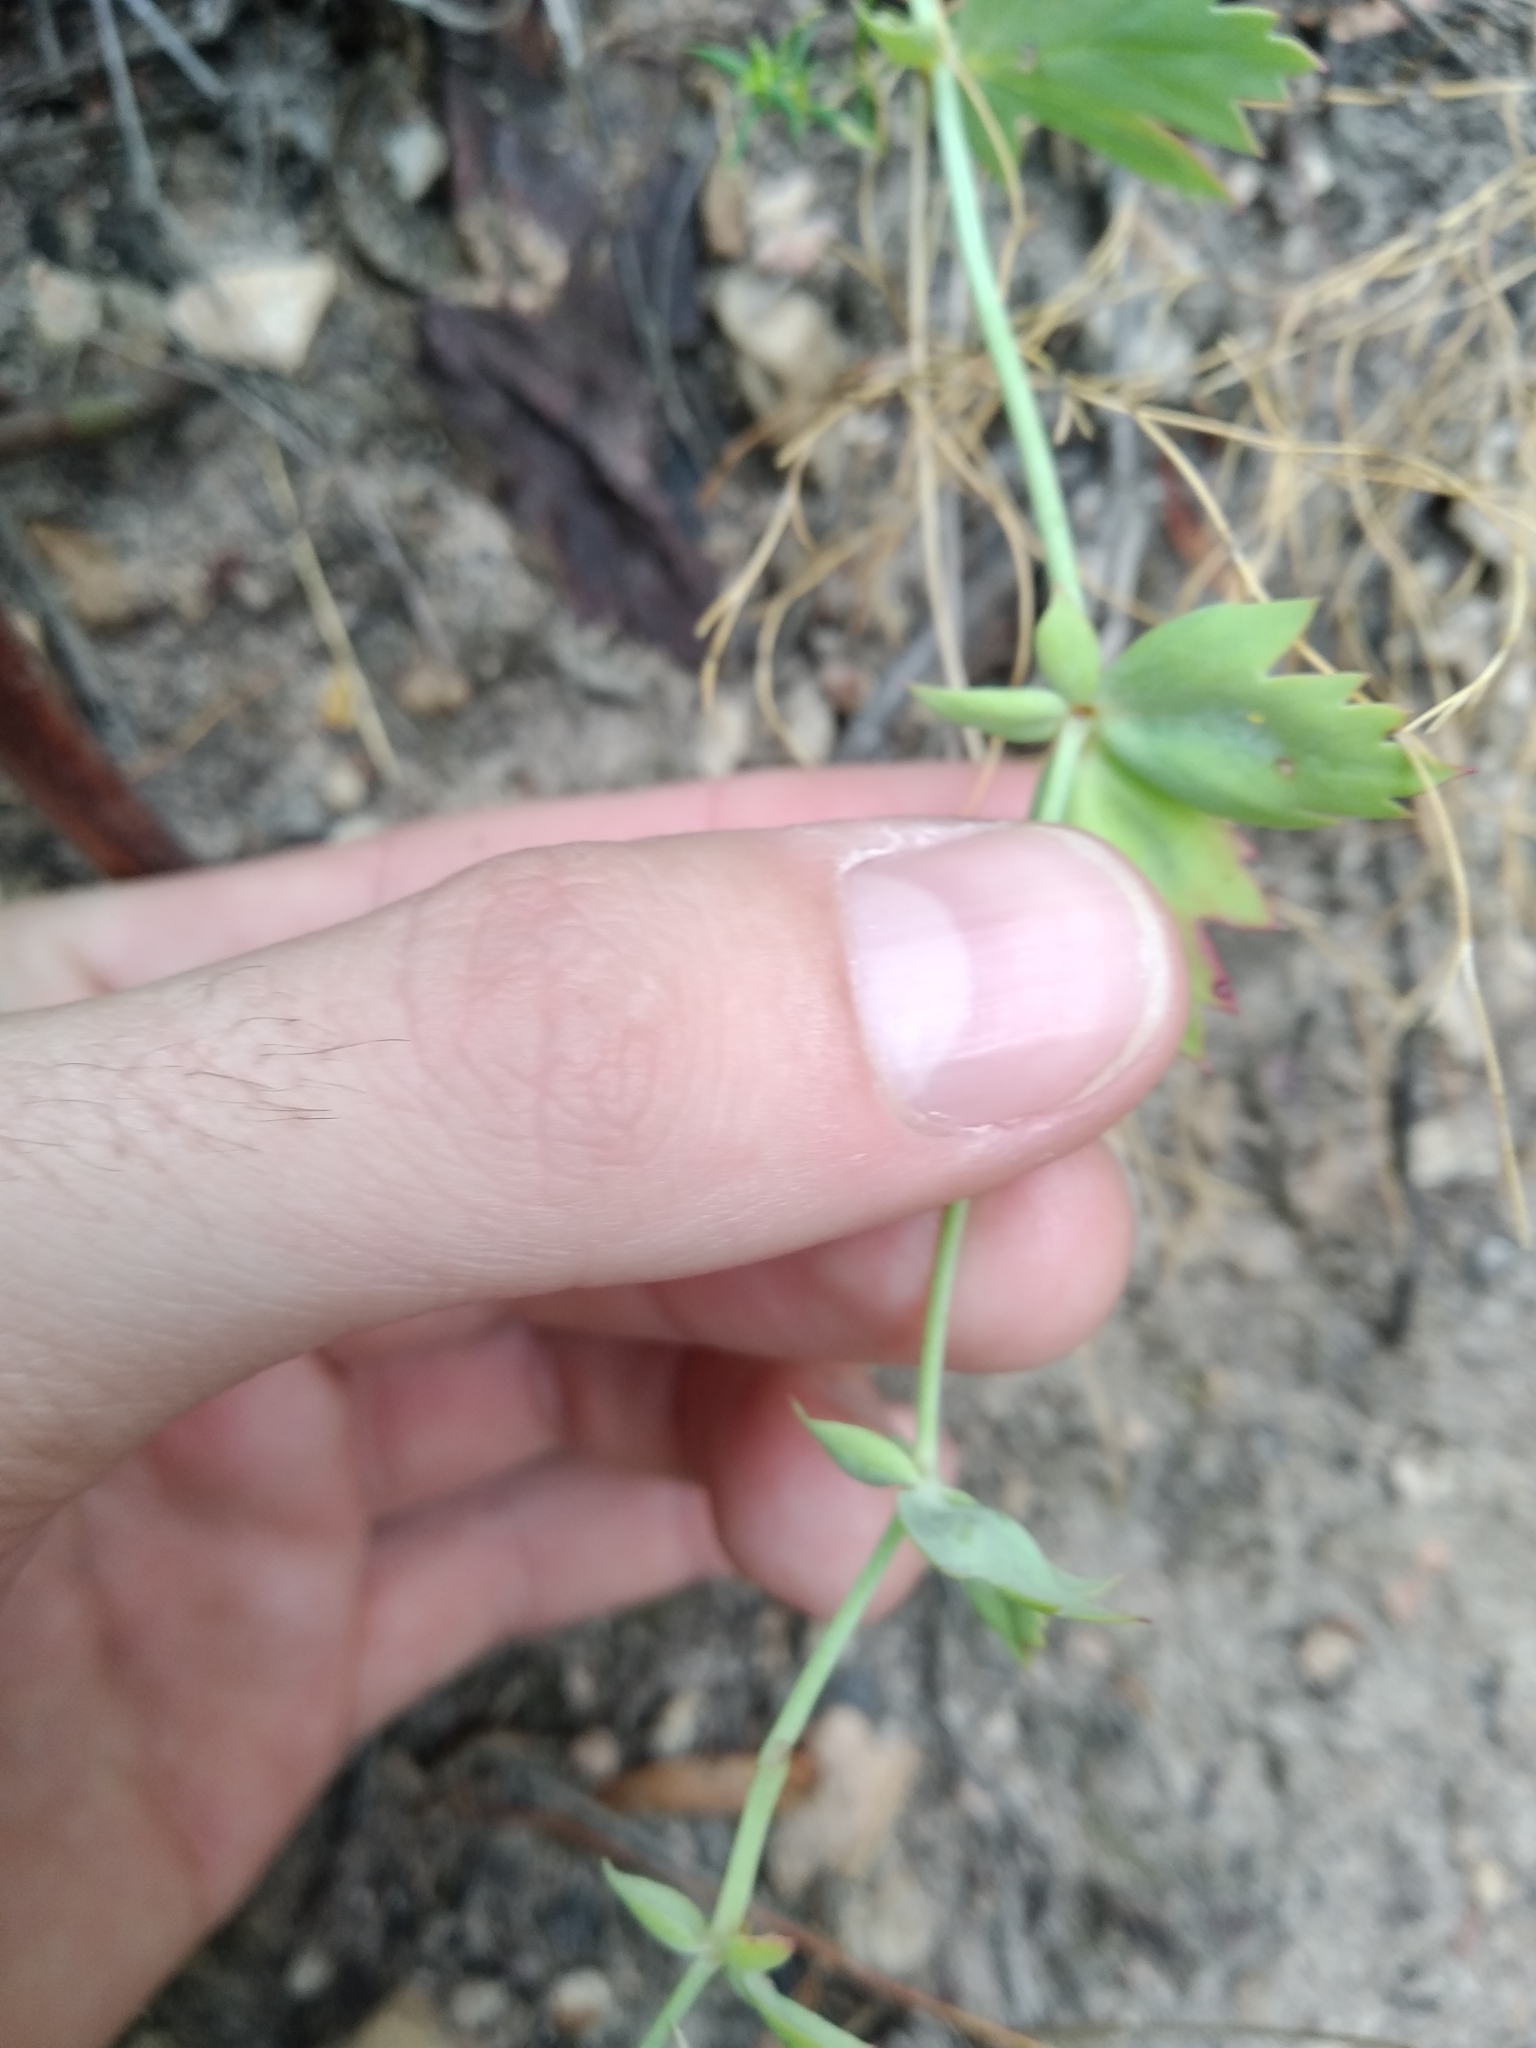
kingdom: Plantae
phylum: Tracheophyta
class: Magnoliopsida
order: Geraniales
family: Geraniaceae
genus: Pelargonium
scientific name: Pelargonium patulum
